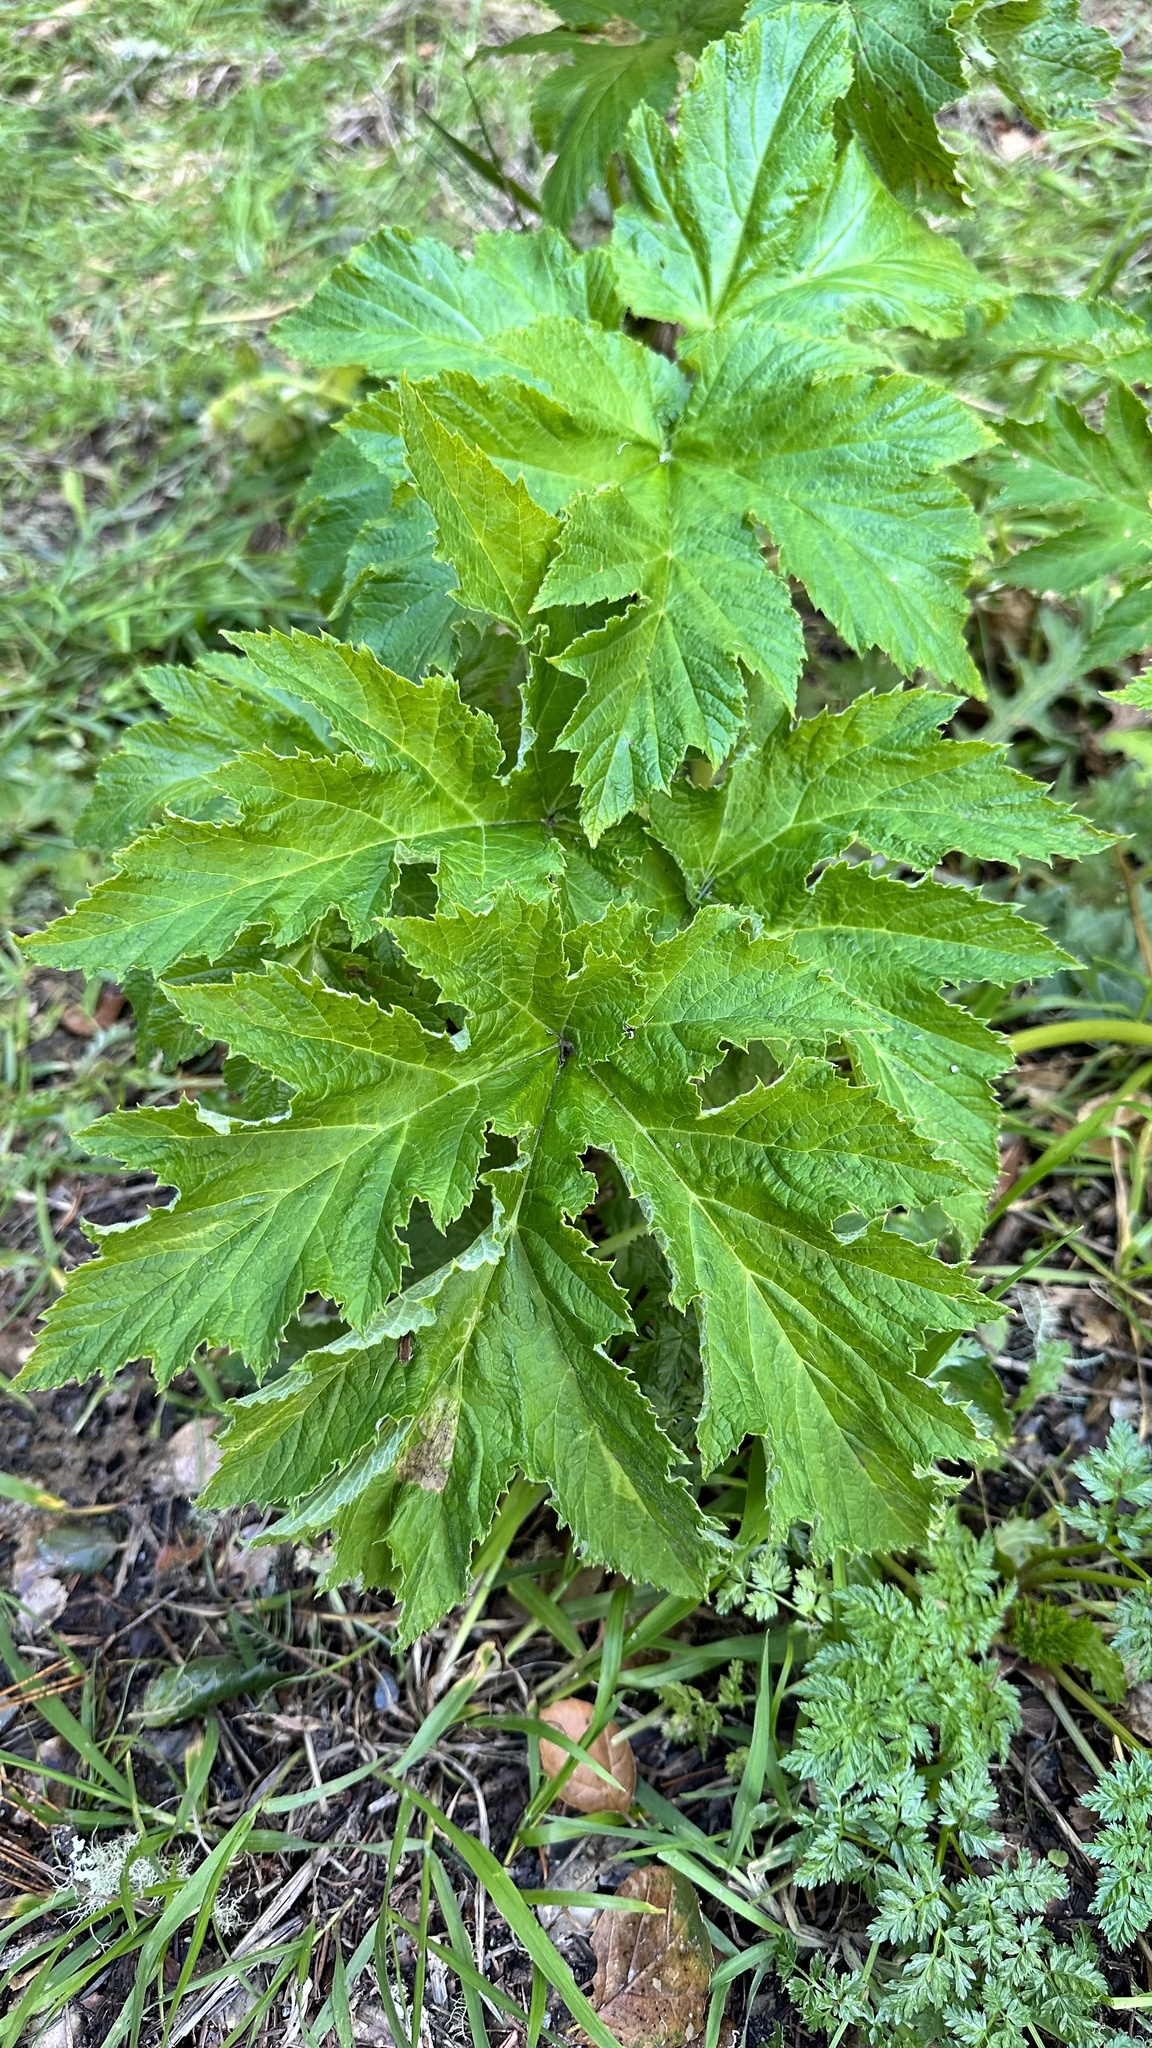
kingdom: Plantae
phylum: Tracheophyta
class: Magnoliopsida
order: Apiales
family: Apiaceae
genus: Heracleum
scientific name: Heracleum maximum
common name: American cow parsnip
